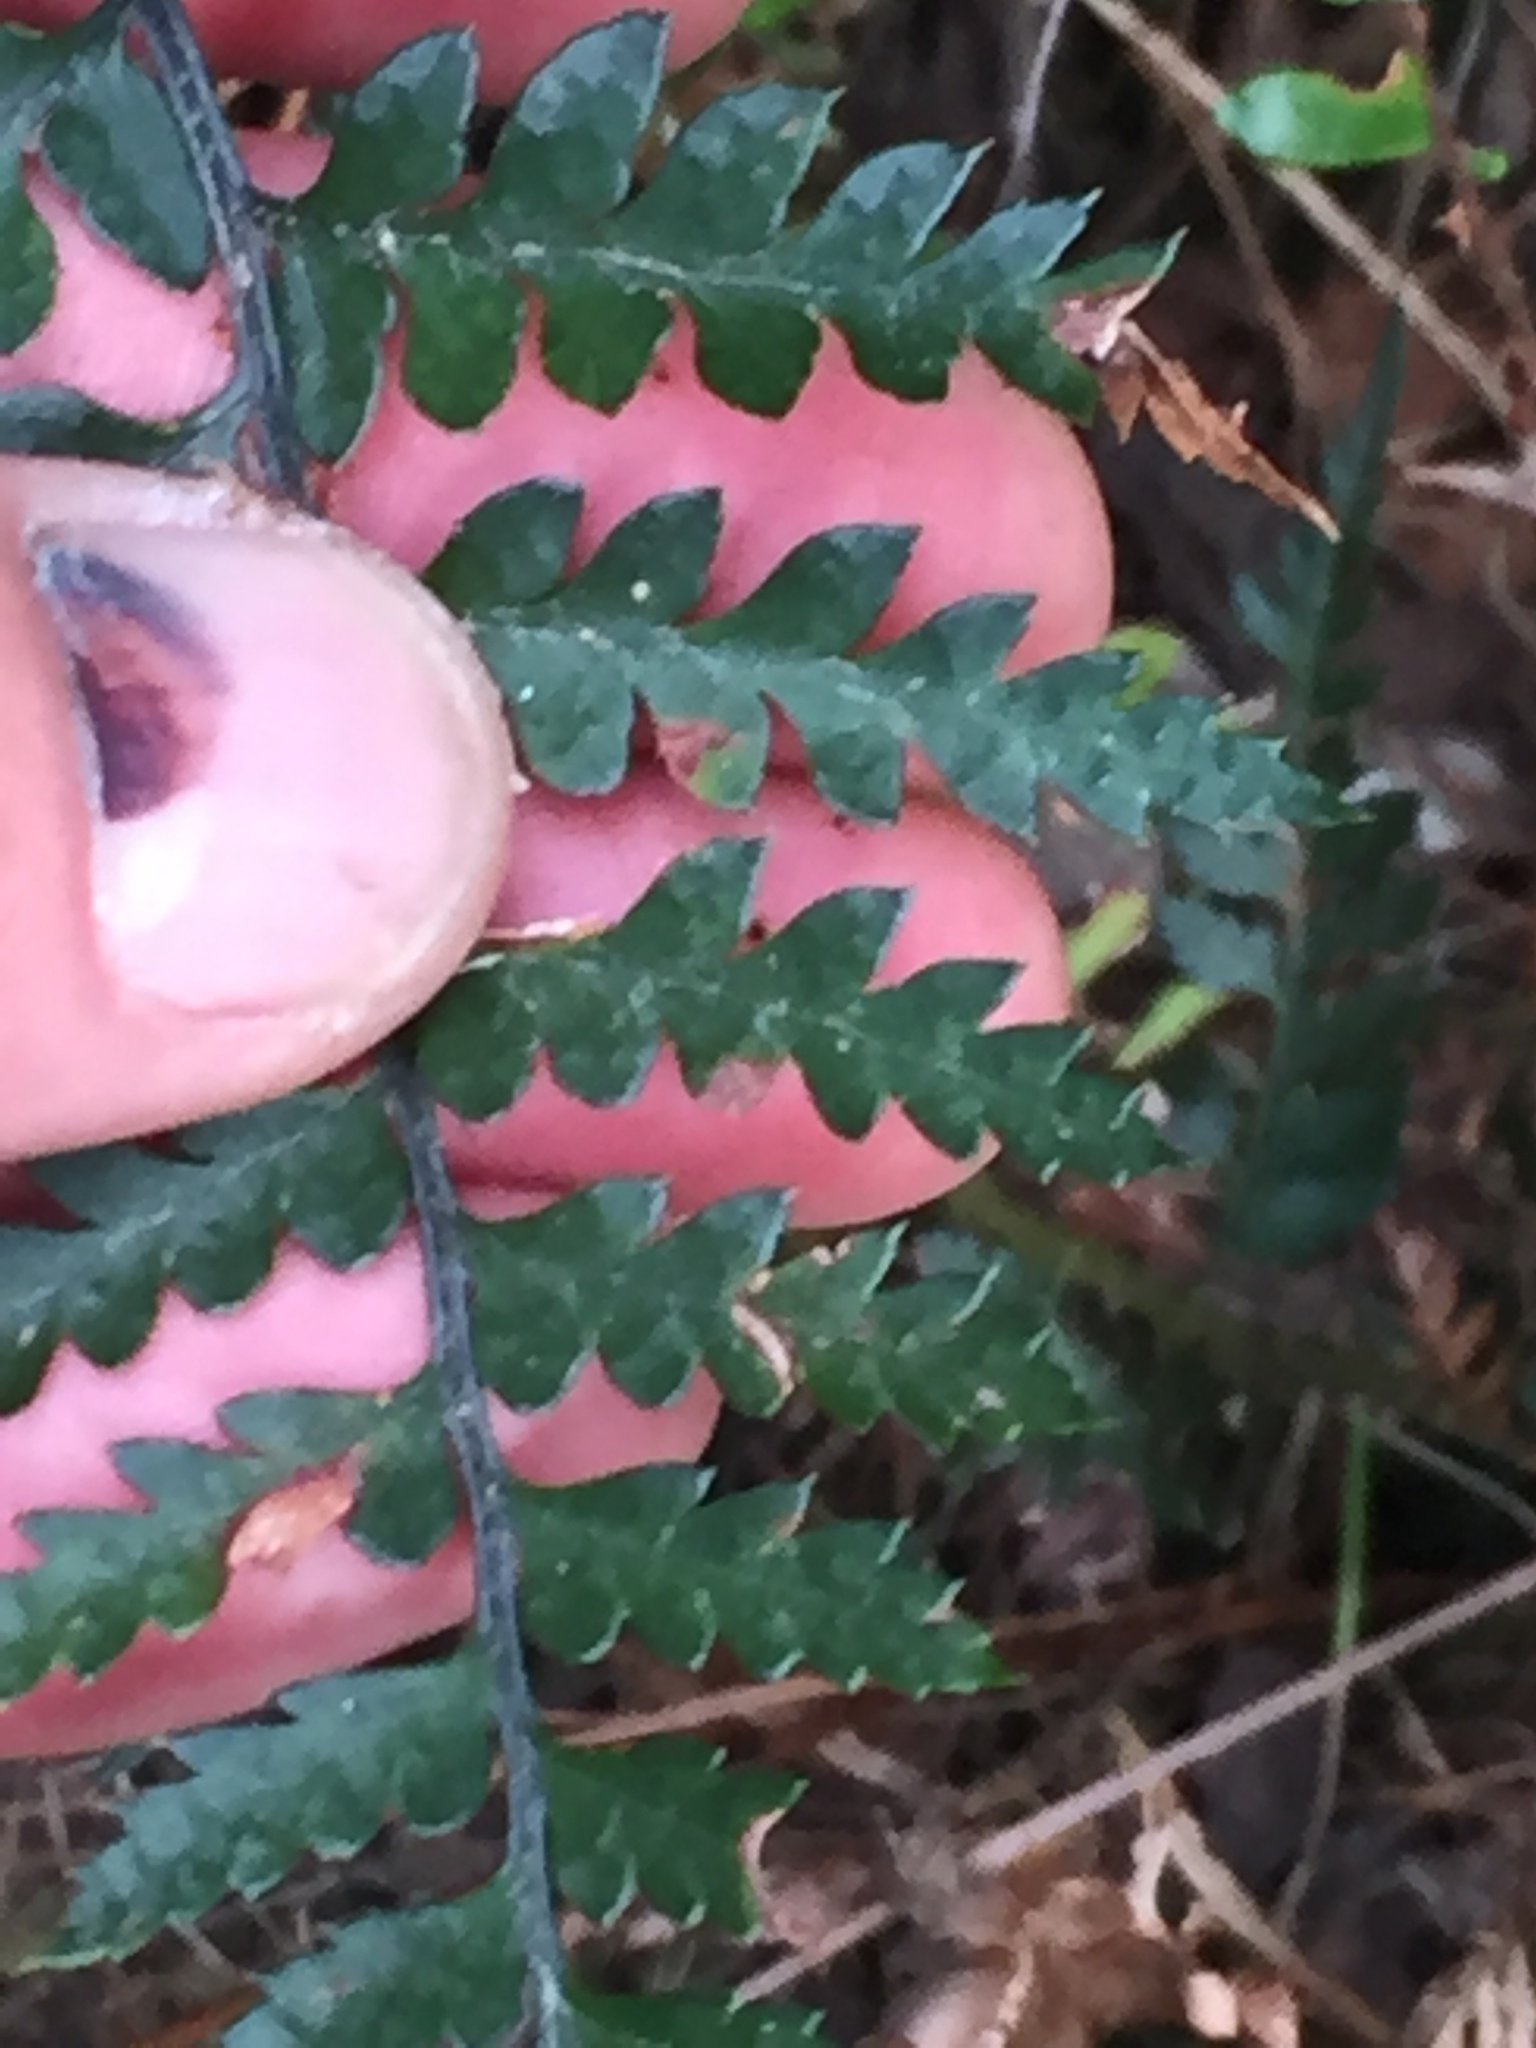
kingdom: Plantae
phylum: Tracheophyta
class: Polypodiopsida
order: Polypodiales
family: Dryopteridaceae
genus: Polystichum
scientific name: Polystichum oculatum
